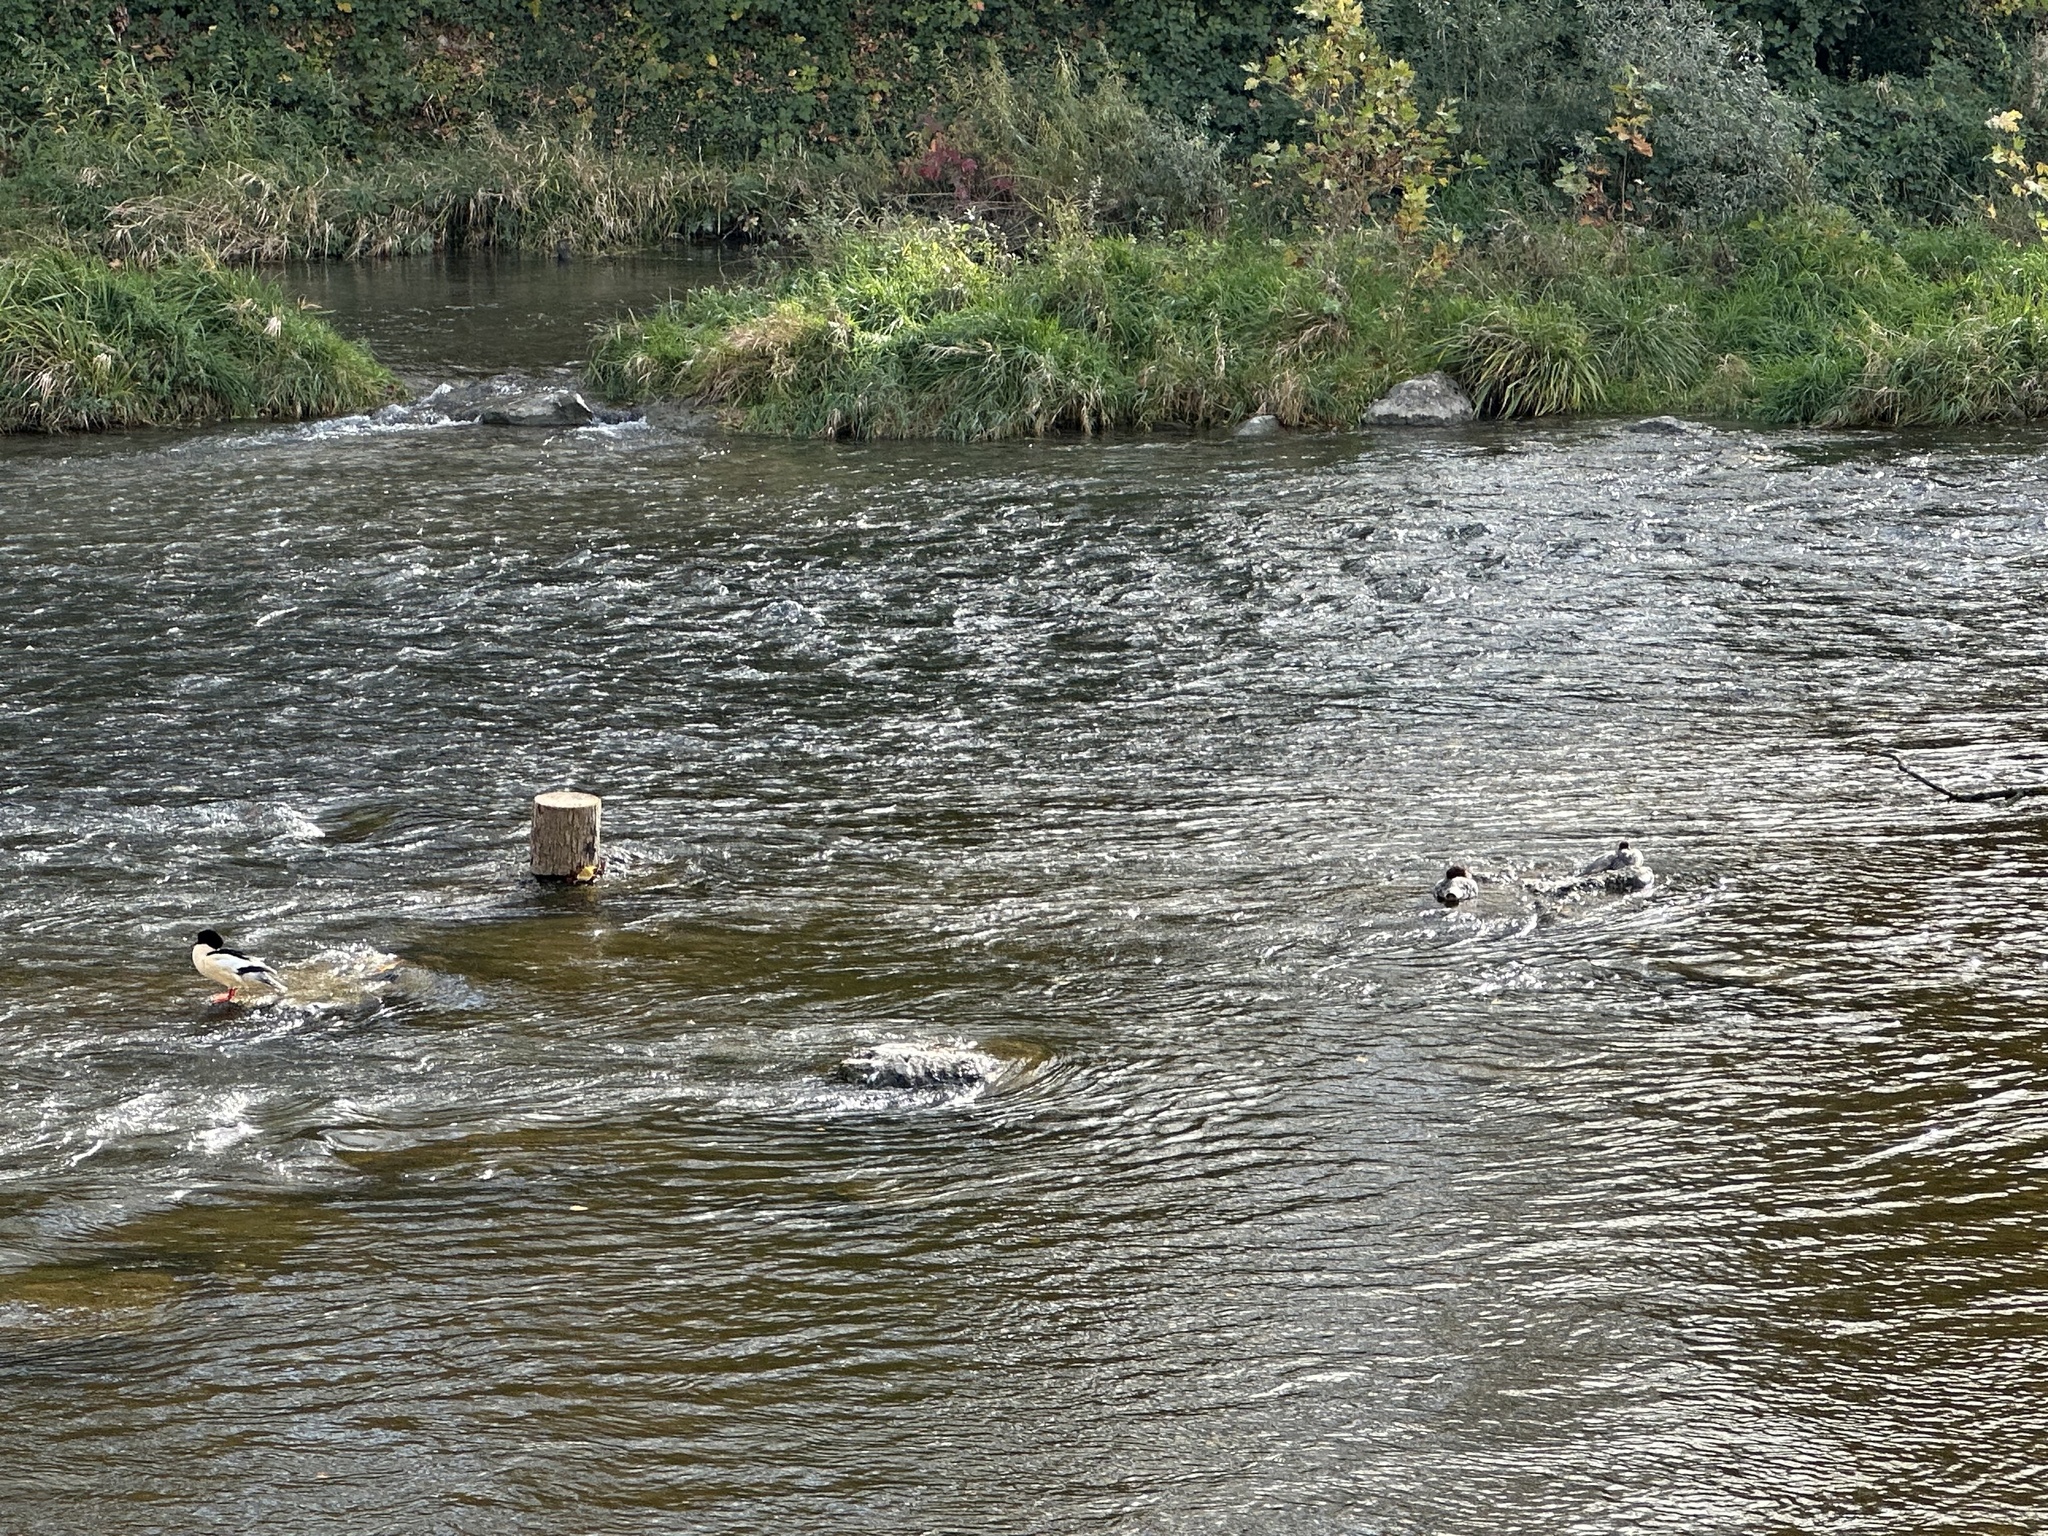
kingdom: Animalia
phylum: Chordata
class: Aves
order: Anseriformes
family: Anatidae
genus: Mergus
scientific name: Mergus merganser
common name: Common merganser
